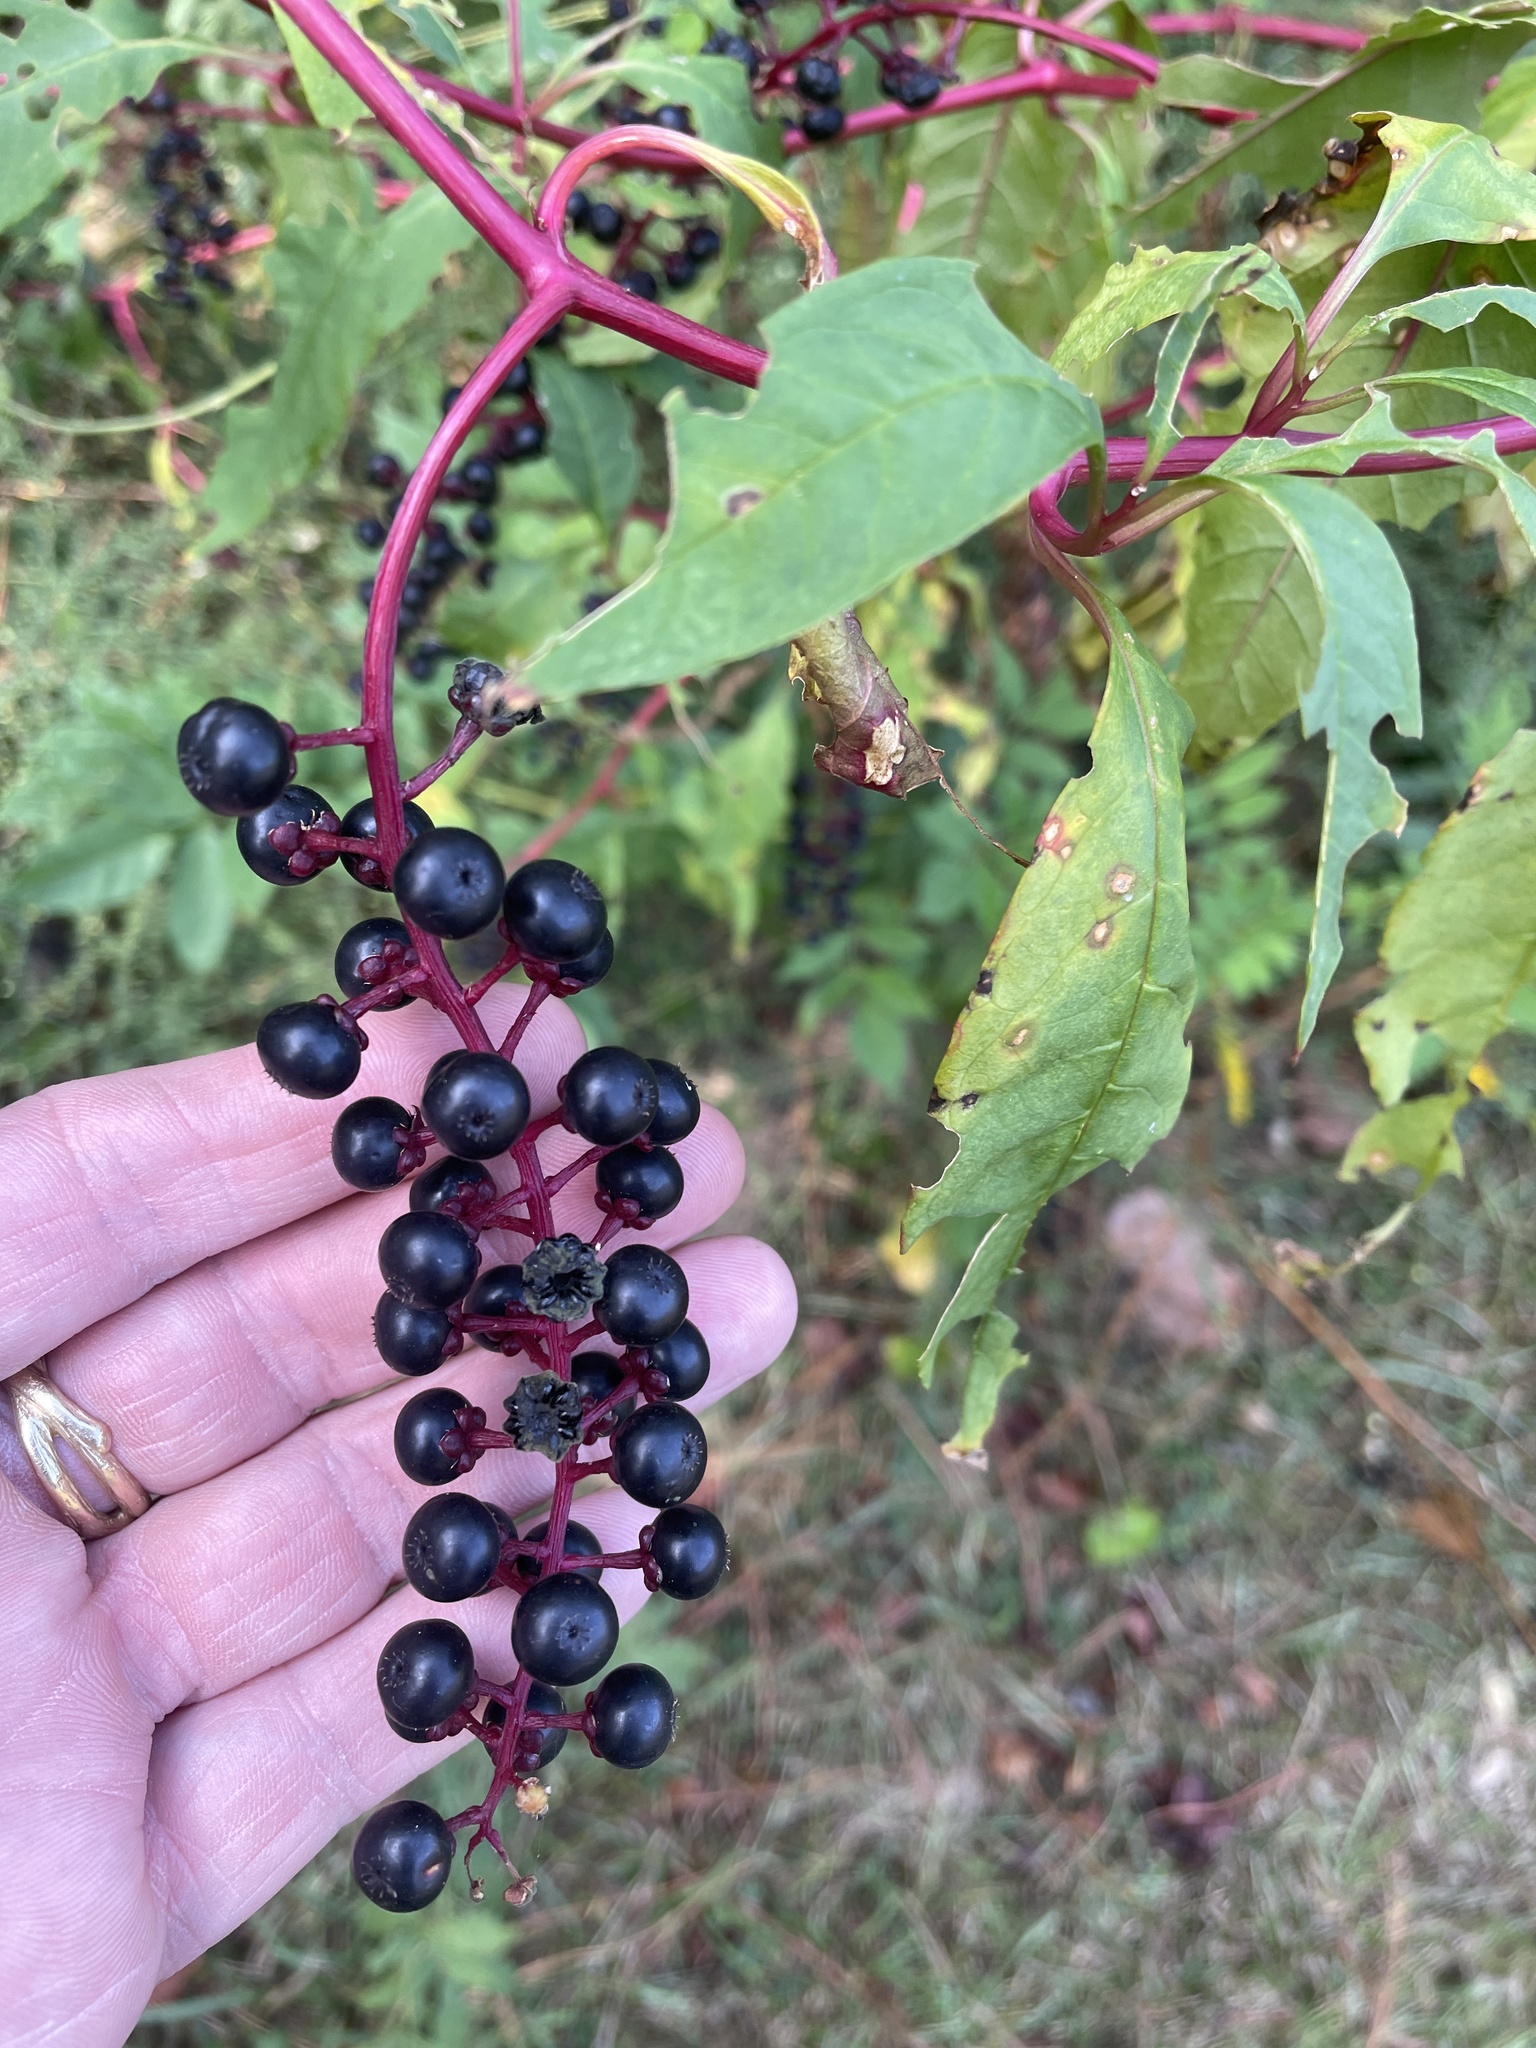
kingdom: Plantae
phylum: Tracheophyta
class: Magnoliopsida
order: Caryophyllales
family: Phytolaccaceae
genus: Phytolacca
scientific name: Phytolacca americana
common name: American pokeweed
